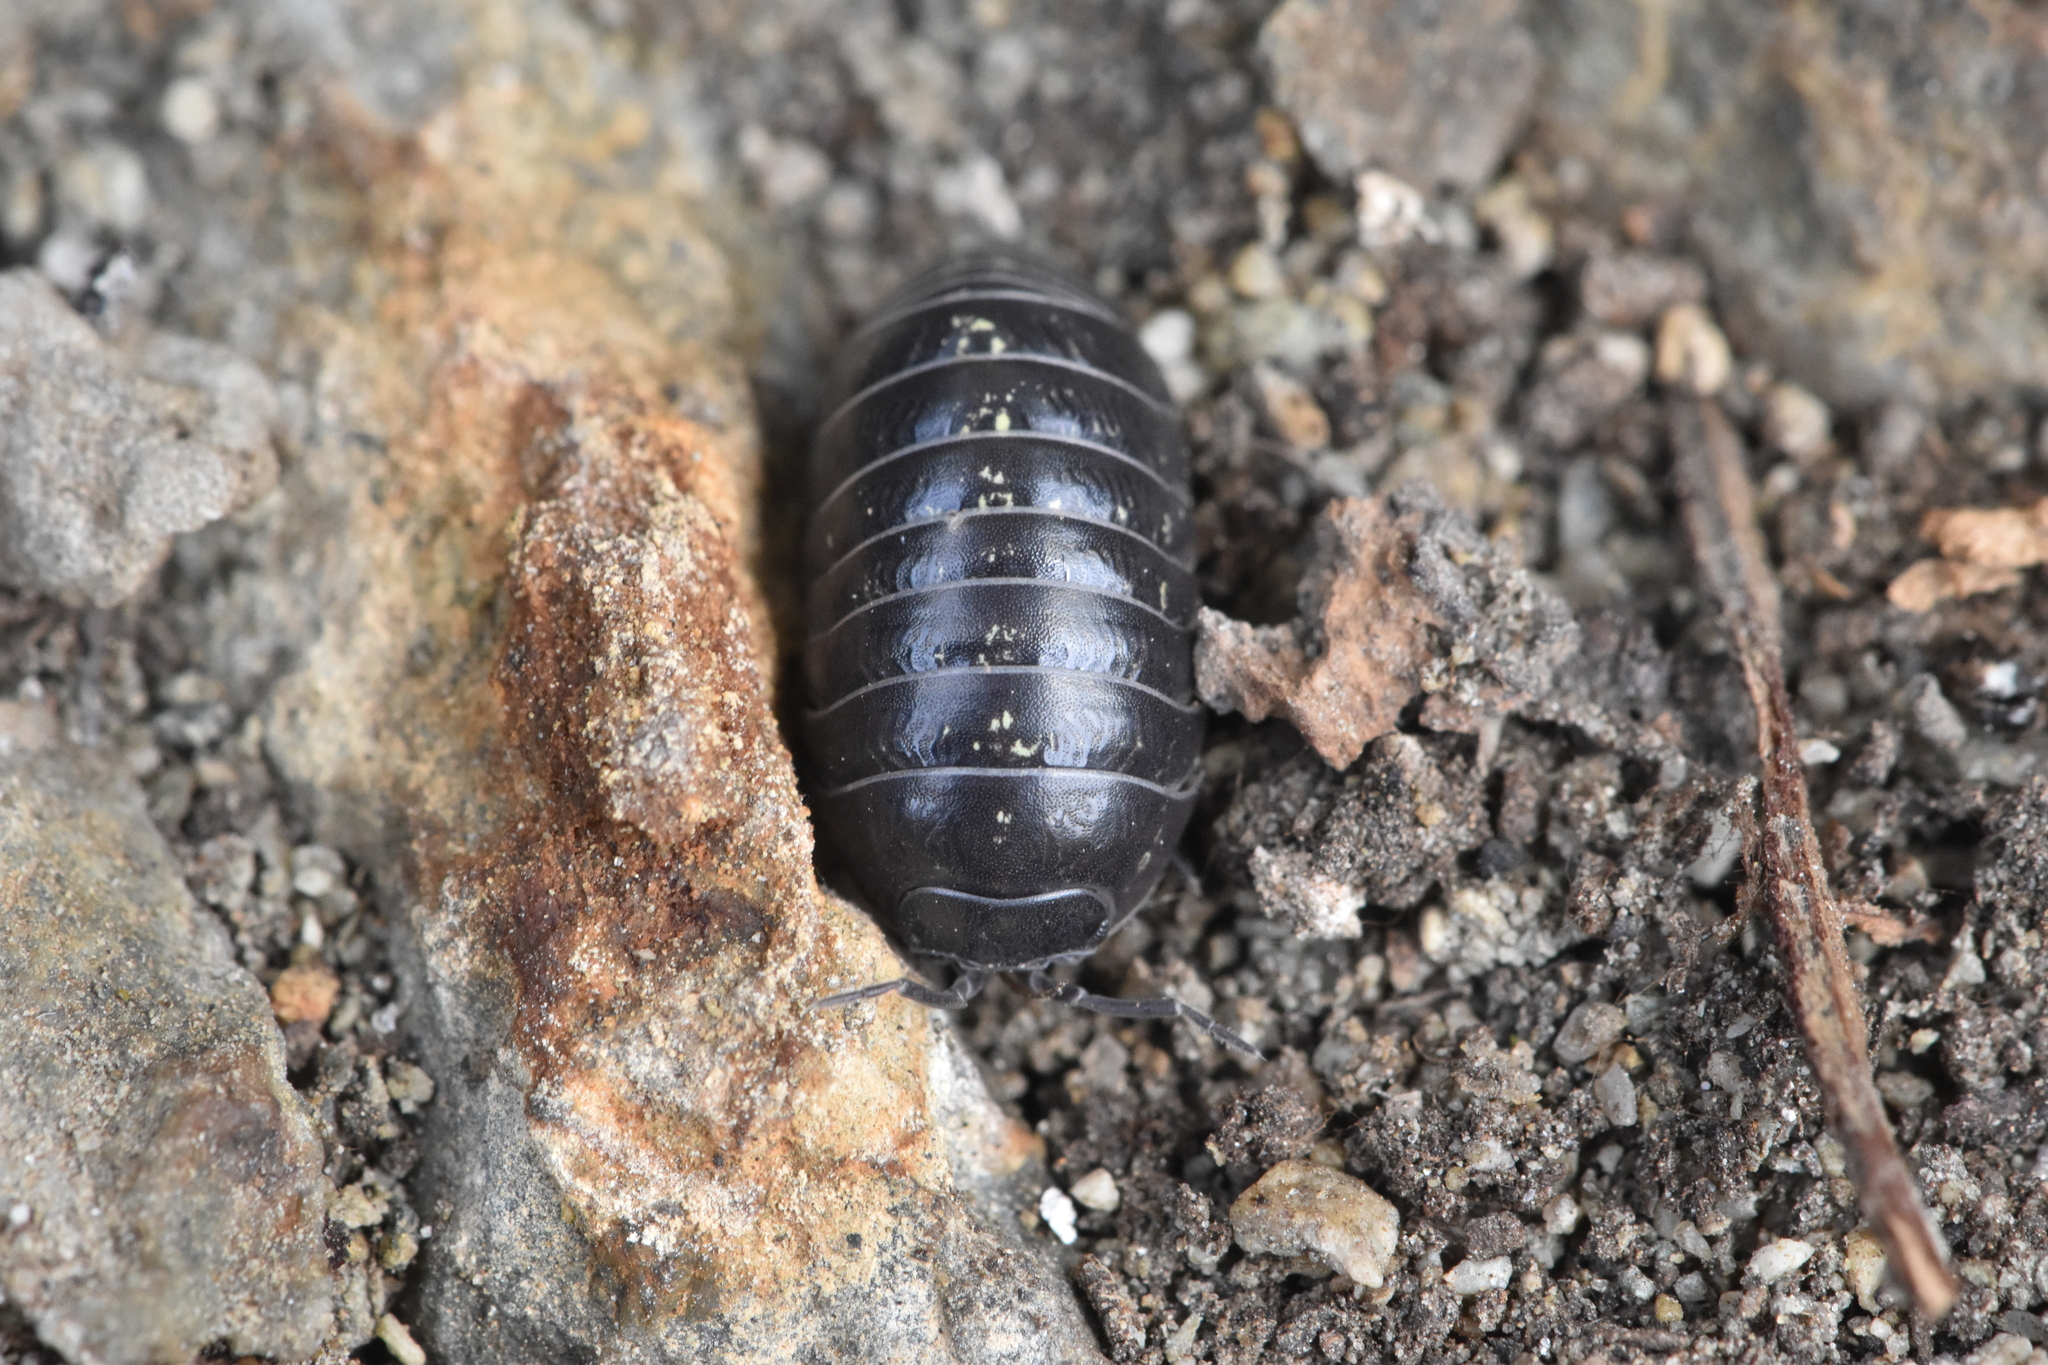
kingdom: Animalia
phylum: Arthropoda
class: Malacostraca
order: Isopoda
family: Armadillidiidae
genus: Armadillidium
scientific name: Armadillidium vulgare
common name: Common pill woodlouse
